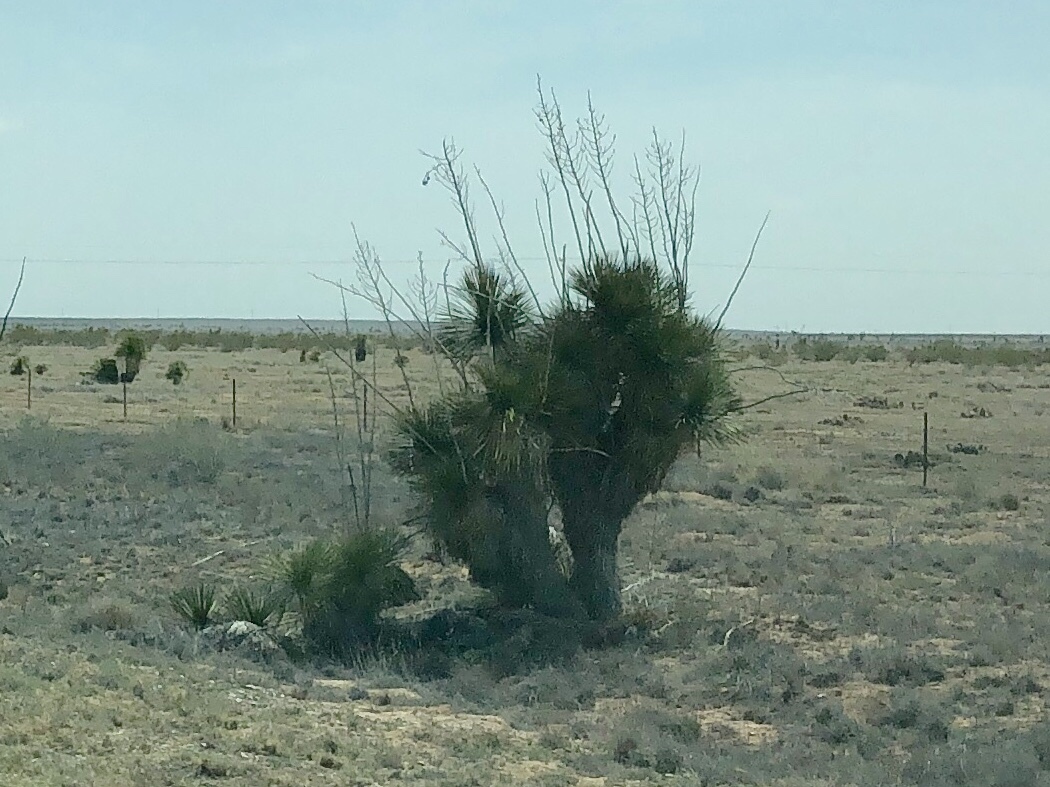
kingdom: Plantae
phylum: Tracheophyta
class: Liliopsida
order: Asparagales
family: Asparagaceae
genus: Yucca
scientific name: Yucca elata
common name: Palmella
